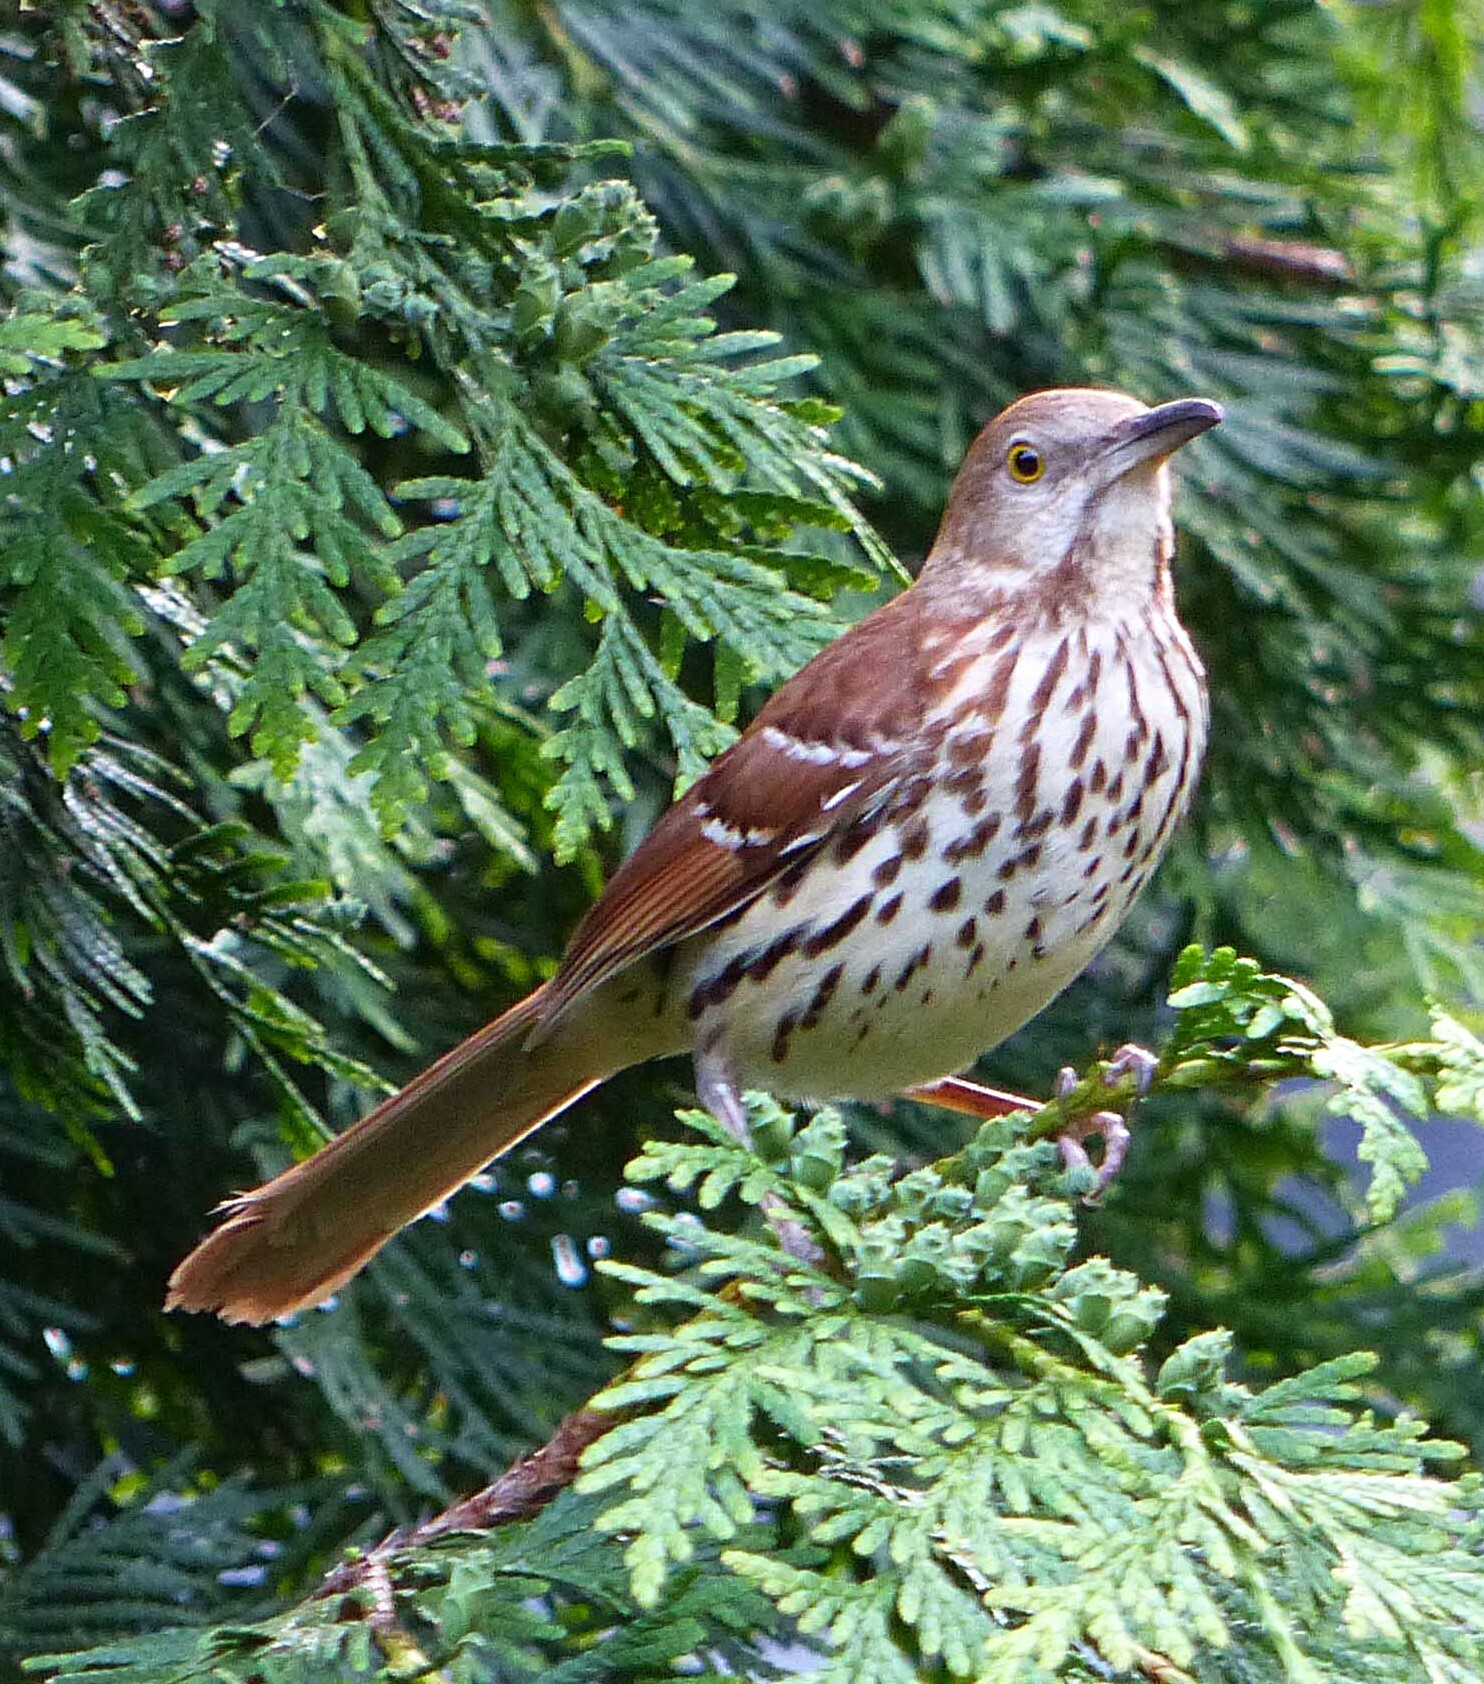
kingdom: Animalia
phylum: Chordata
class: Aves
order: Passeriformes
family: Mimidae
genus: Toxostoma
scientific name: Toxostoma rufum
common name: Brown thrasher
